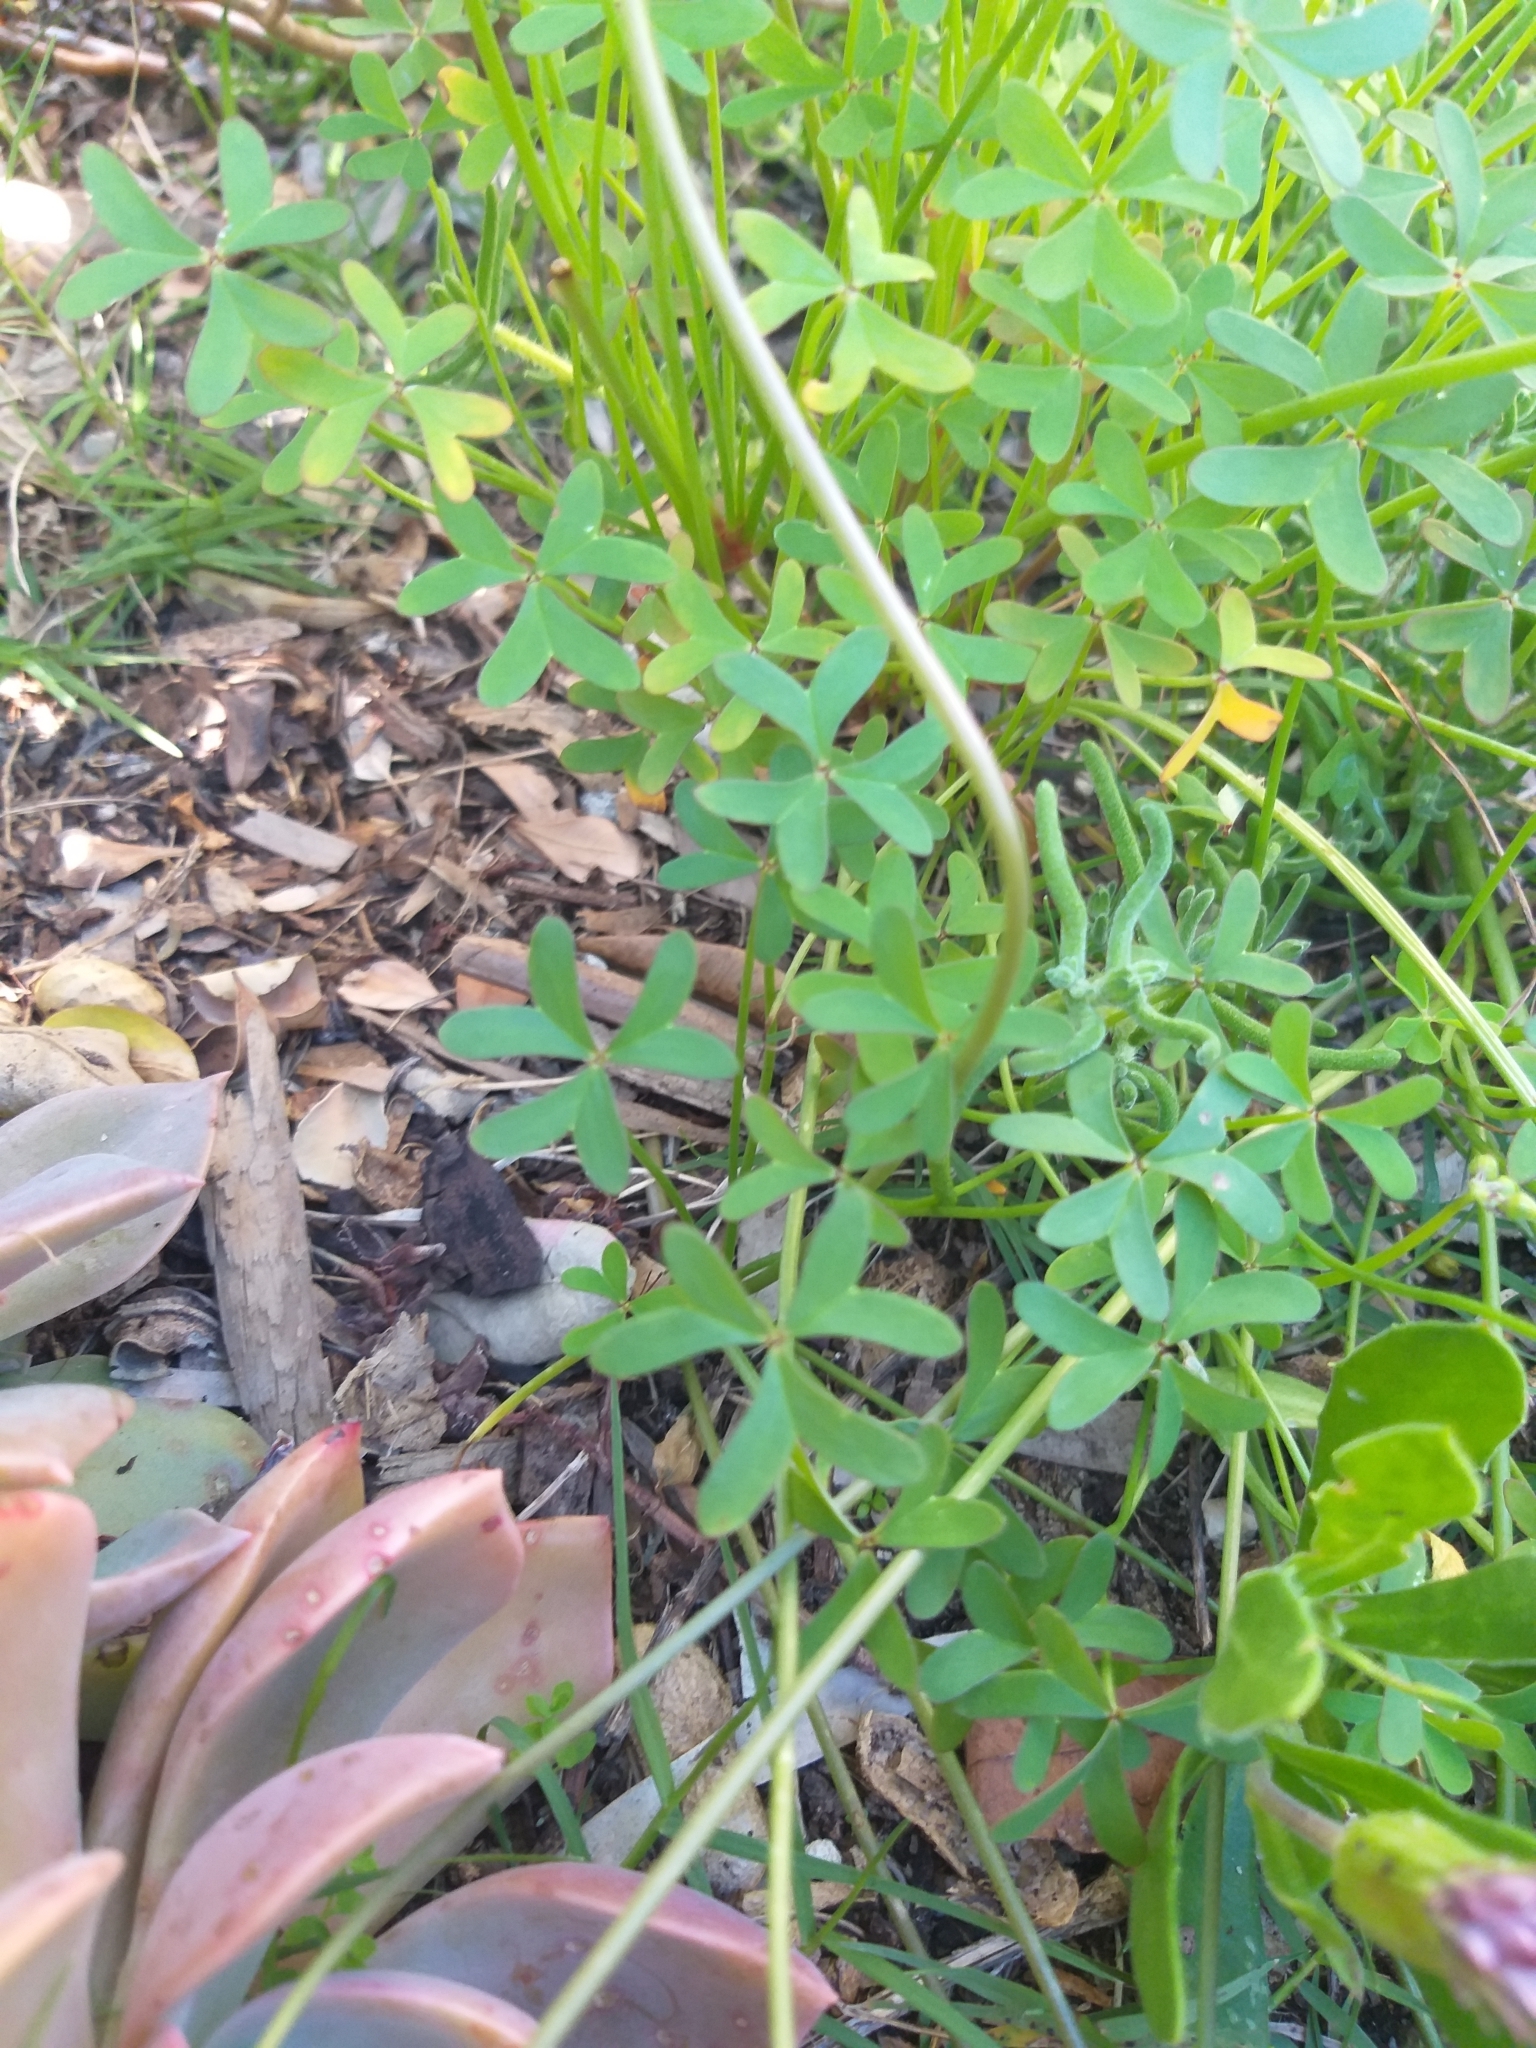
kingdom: Plantae
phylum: Tracheophyta
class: Magnoliopsida
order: Oxalidales
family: Oxalidaceae
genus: Oxalis
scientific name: Oxalis pes-caprae
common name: Bermuda-buttercup
